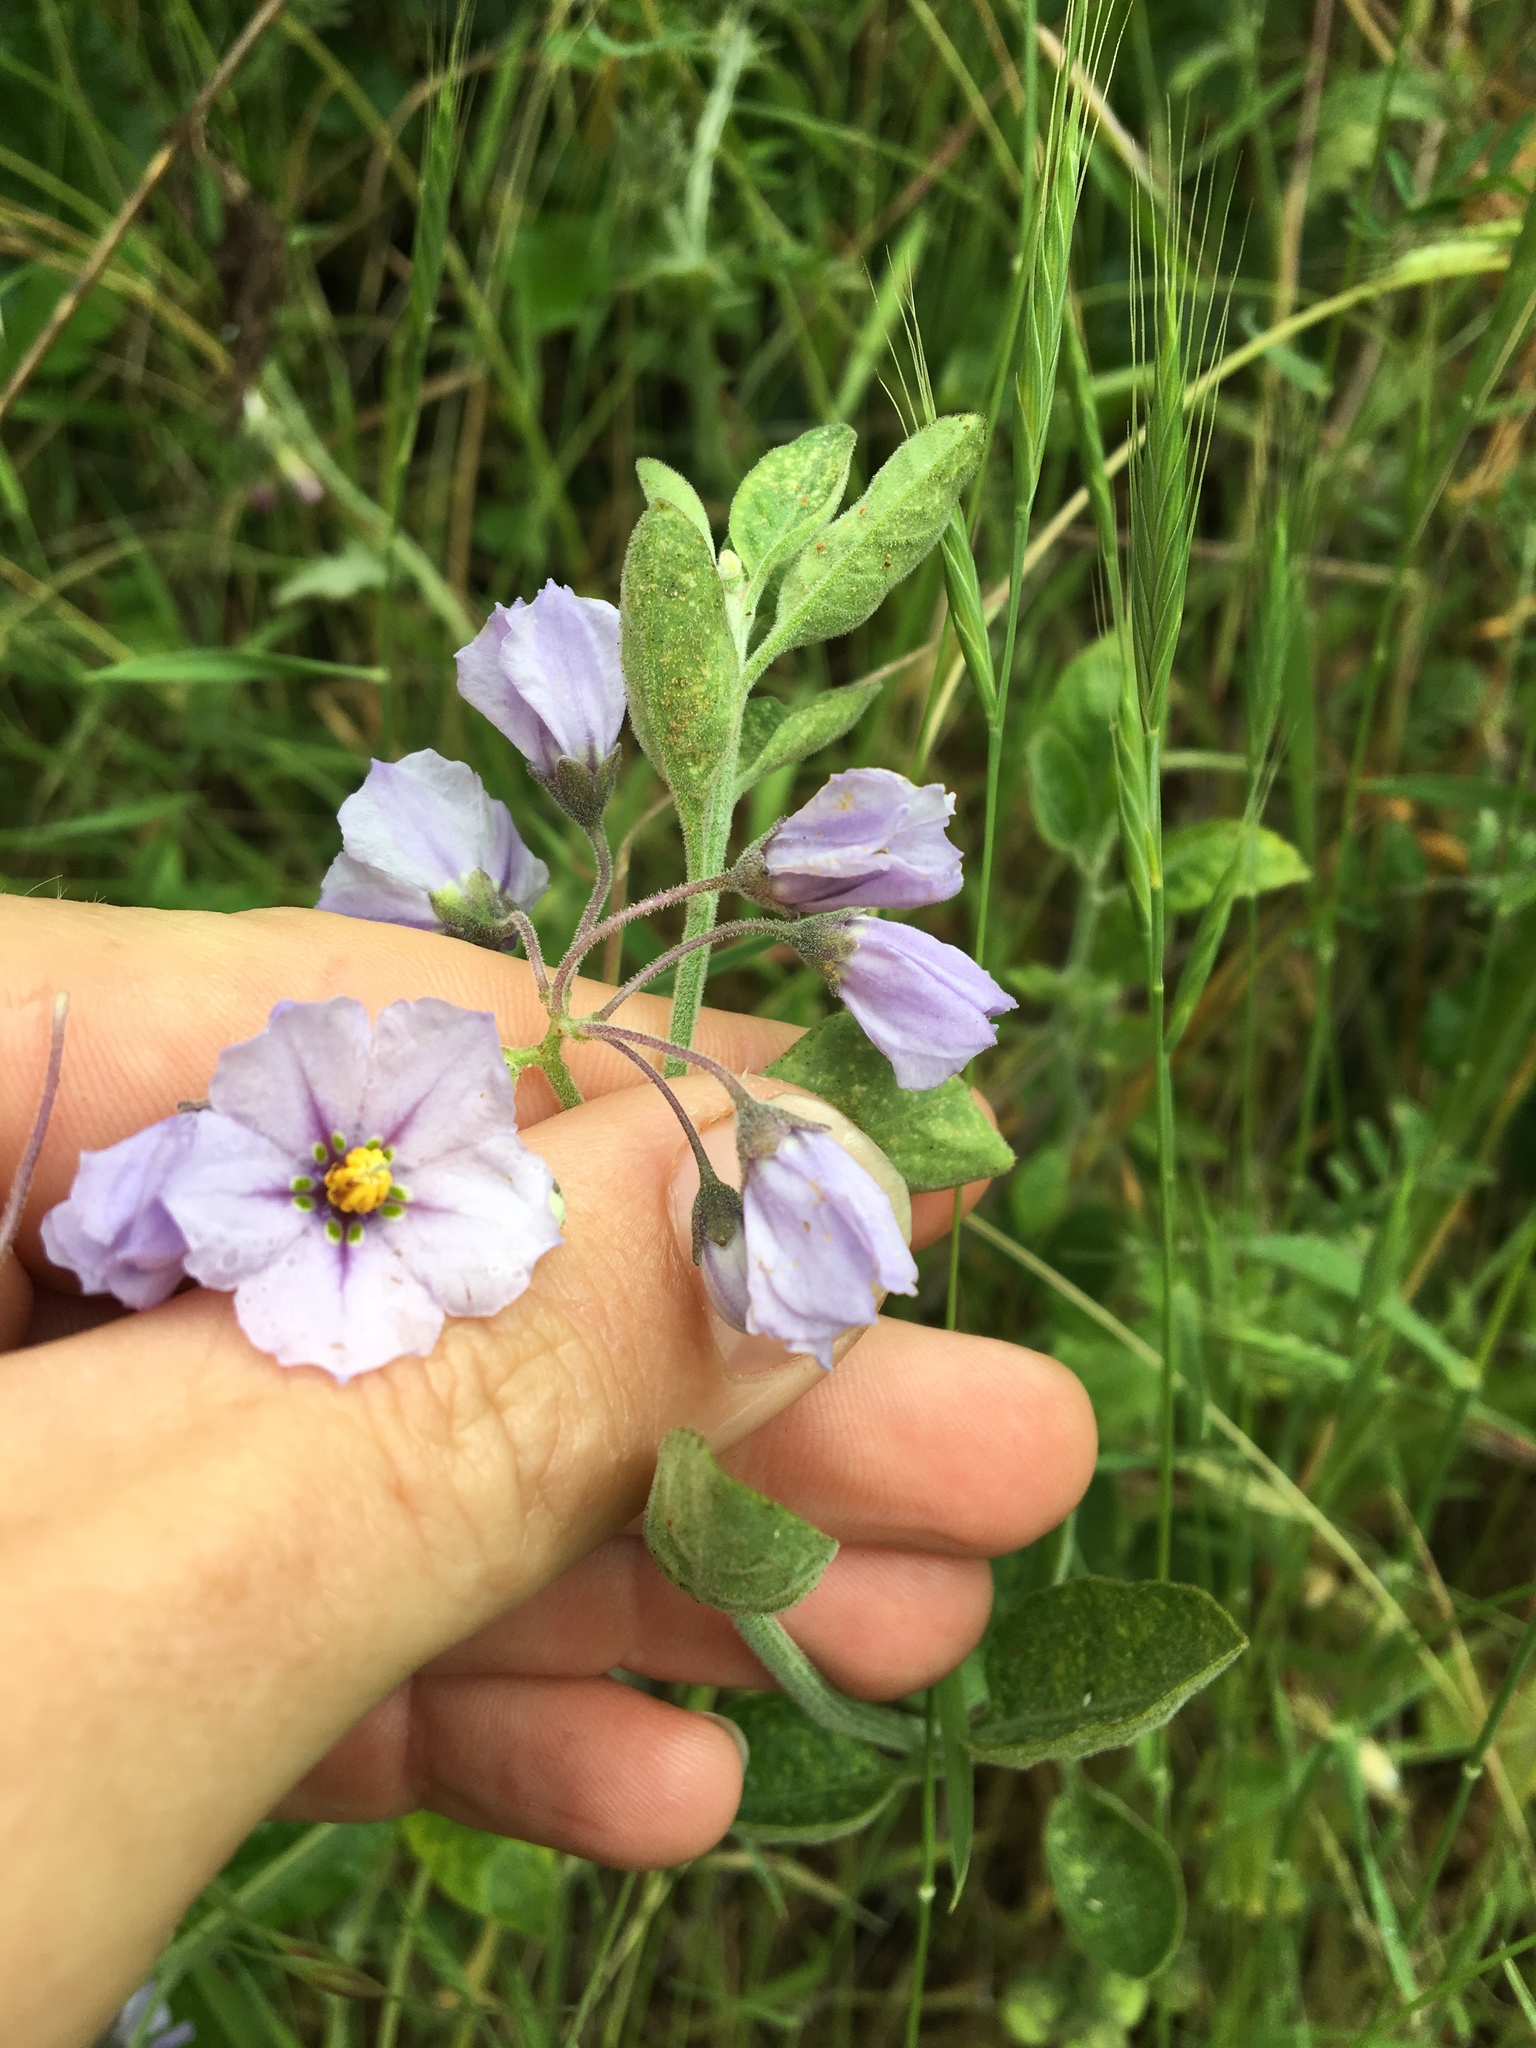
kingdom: Plantae
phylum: Tracheophyta
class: Magnoliopsida
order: Solanales
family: Solanaceae
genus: Solanum
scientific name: Solanum umbelliferum
